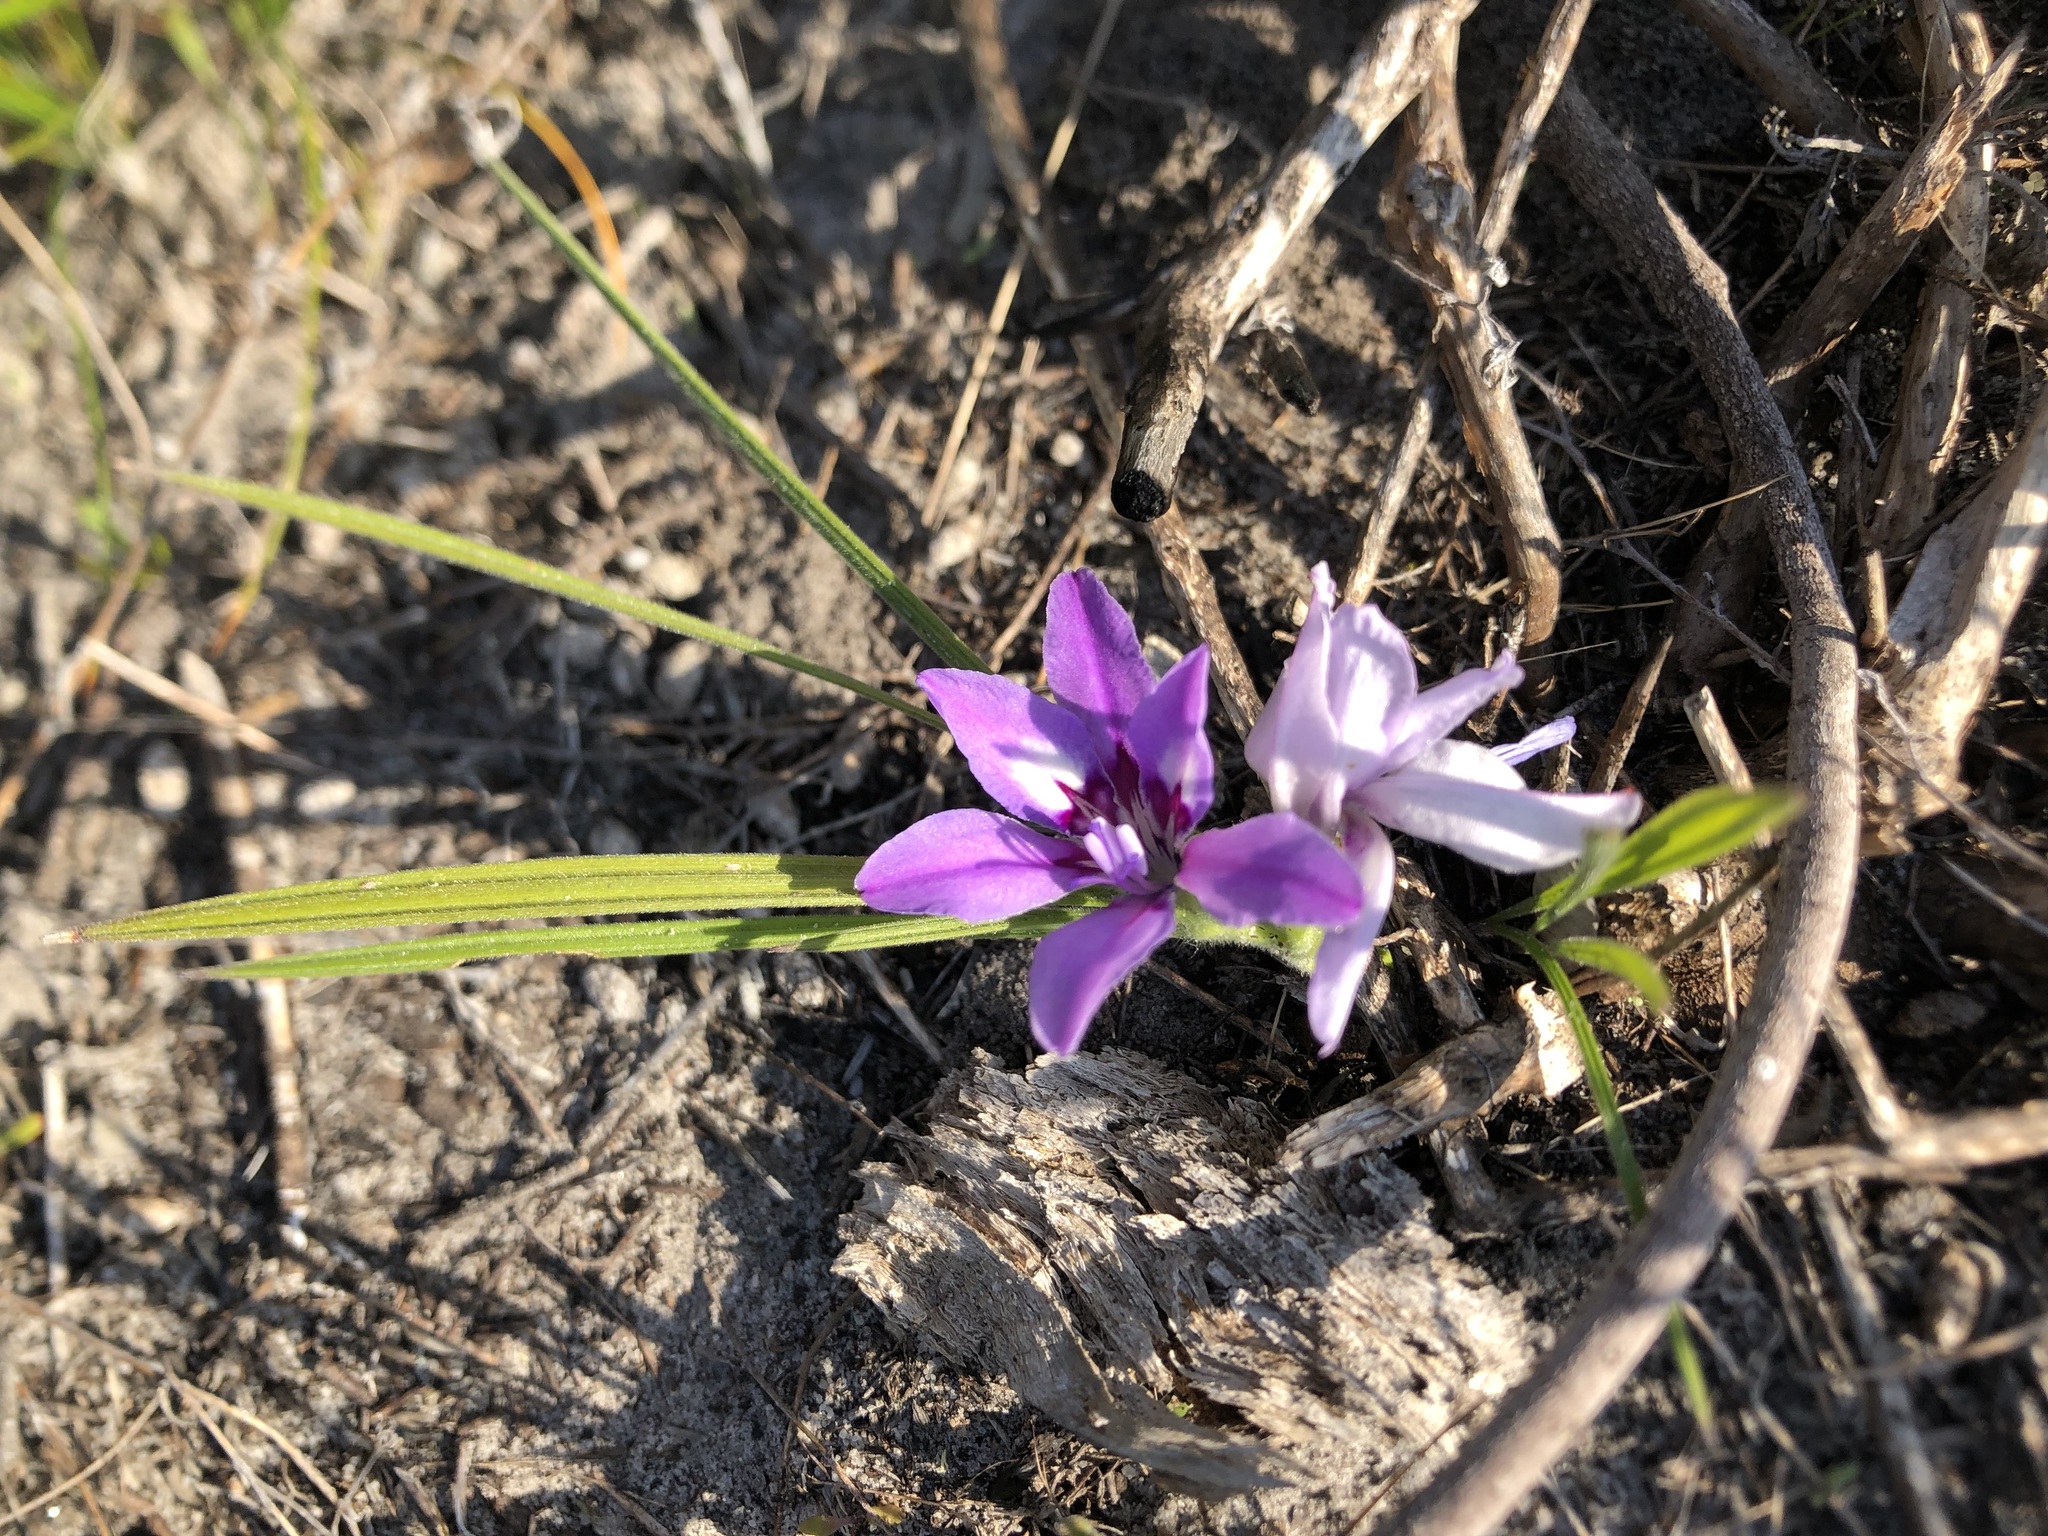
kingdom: Plantae
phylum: Tracheophyta
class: Liliopsida
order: Asparagales
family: Iridaceae
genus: Babiana
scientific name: Babiana ambigua
